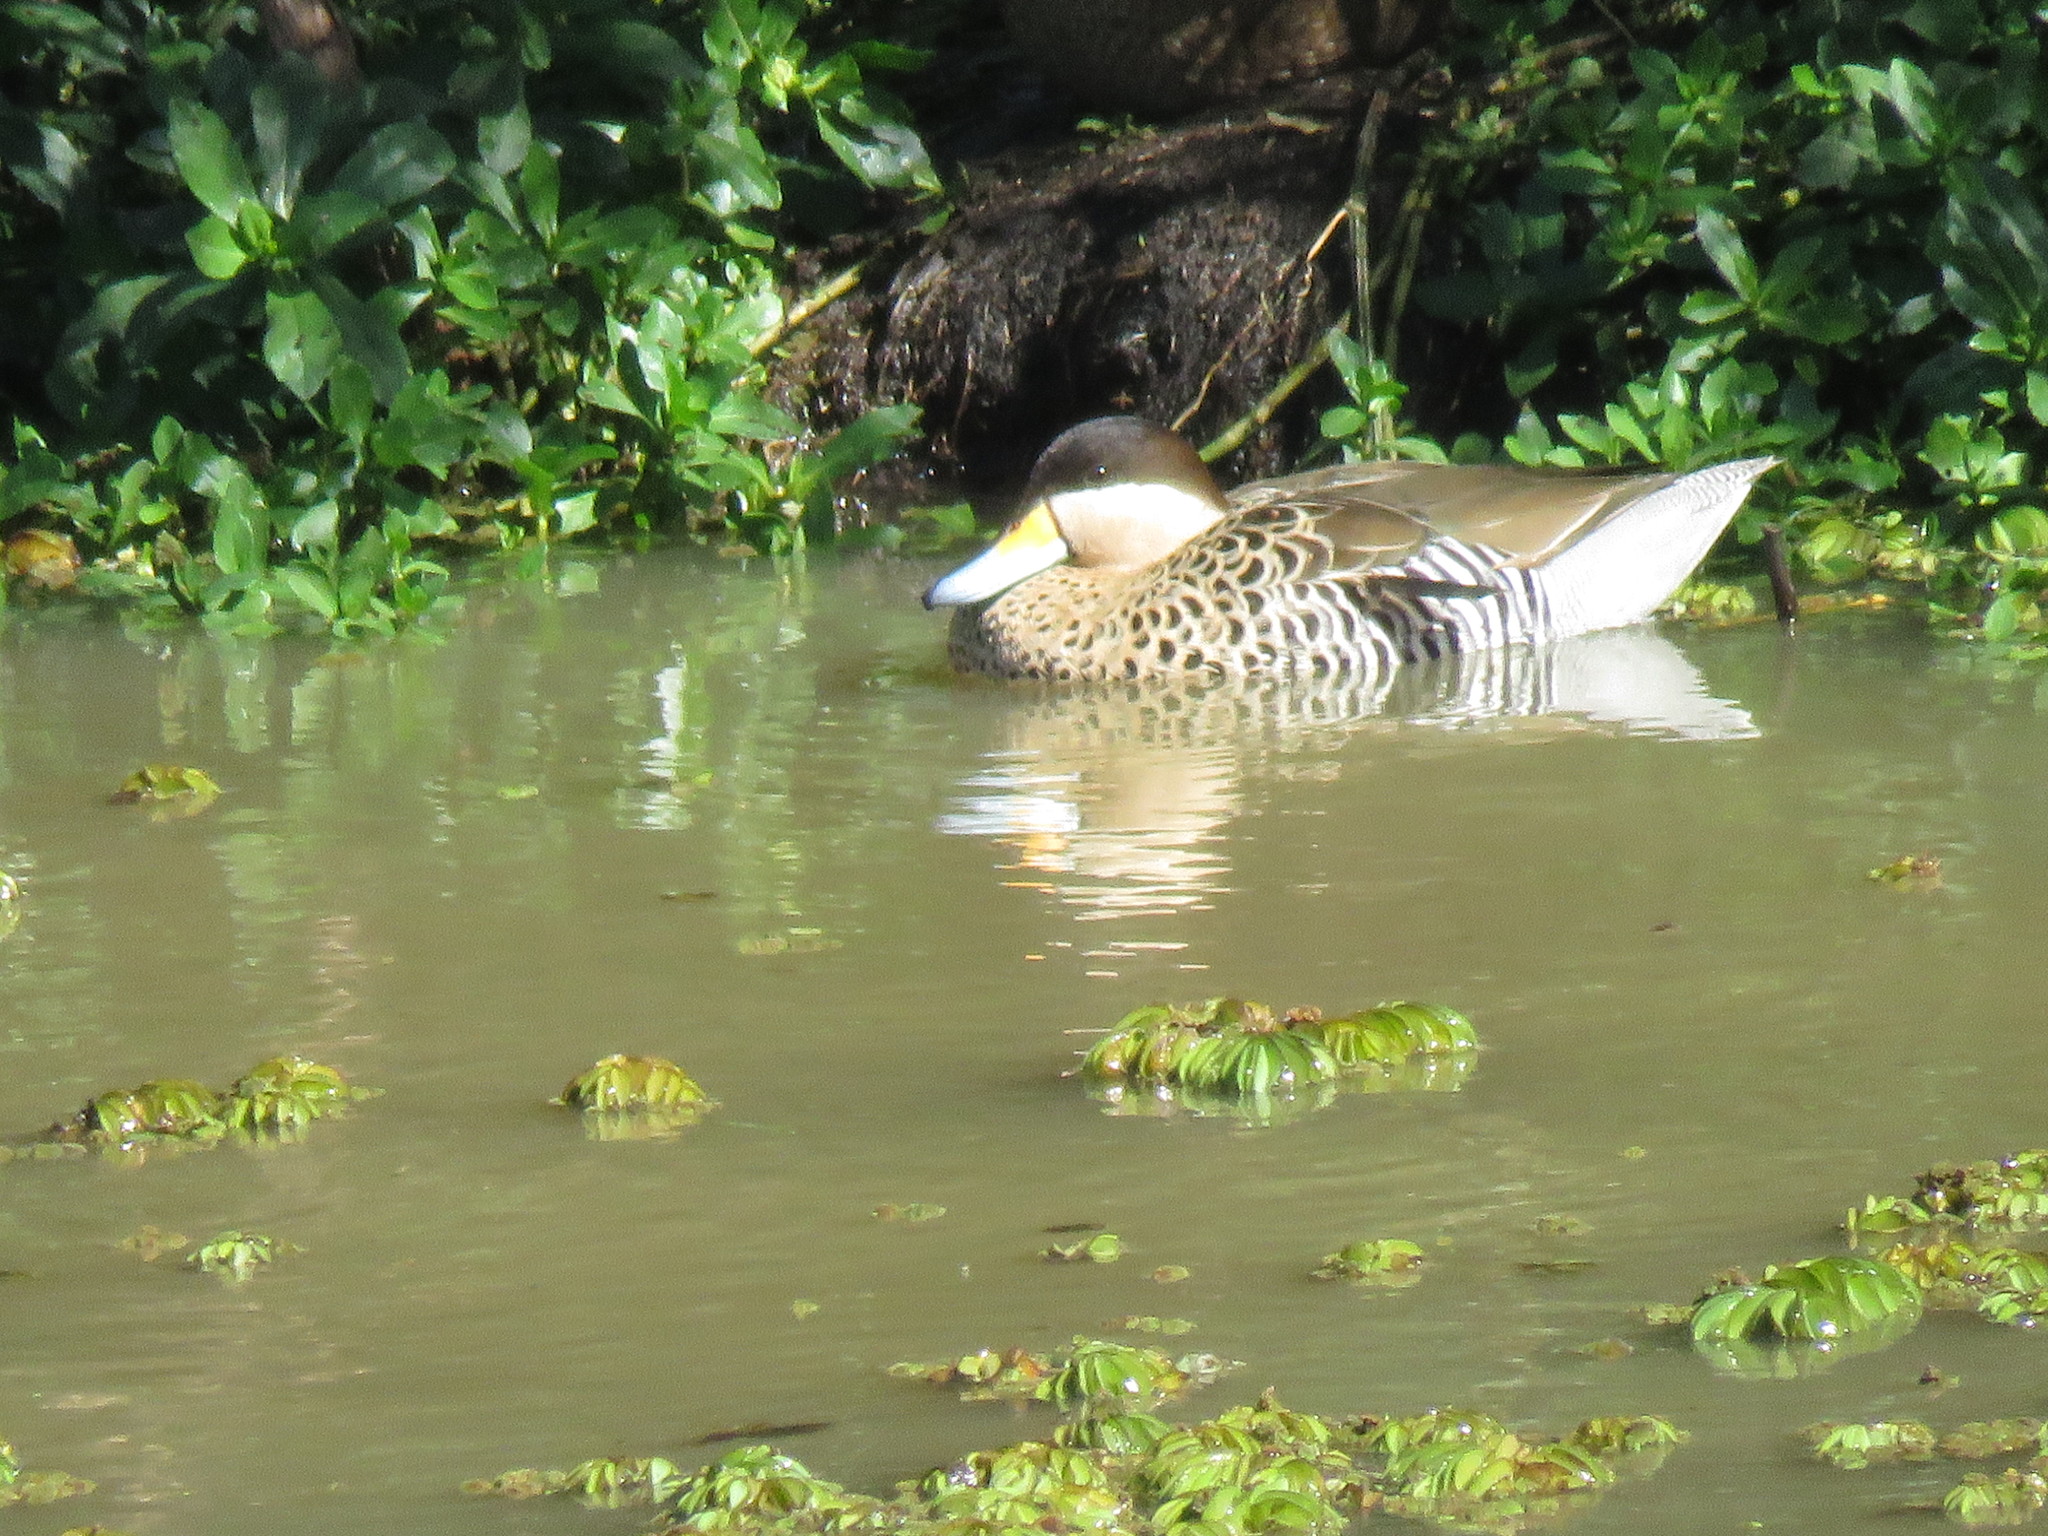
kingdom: Animalia
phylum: Chordata
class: Aves
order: Anseriformes
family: Anatidae
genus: Spatula
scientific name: Spatula versicolor
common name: Silver teal
